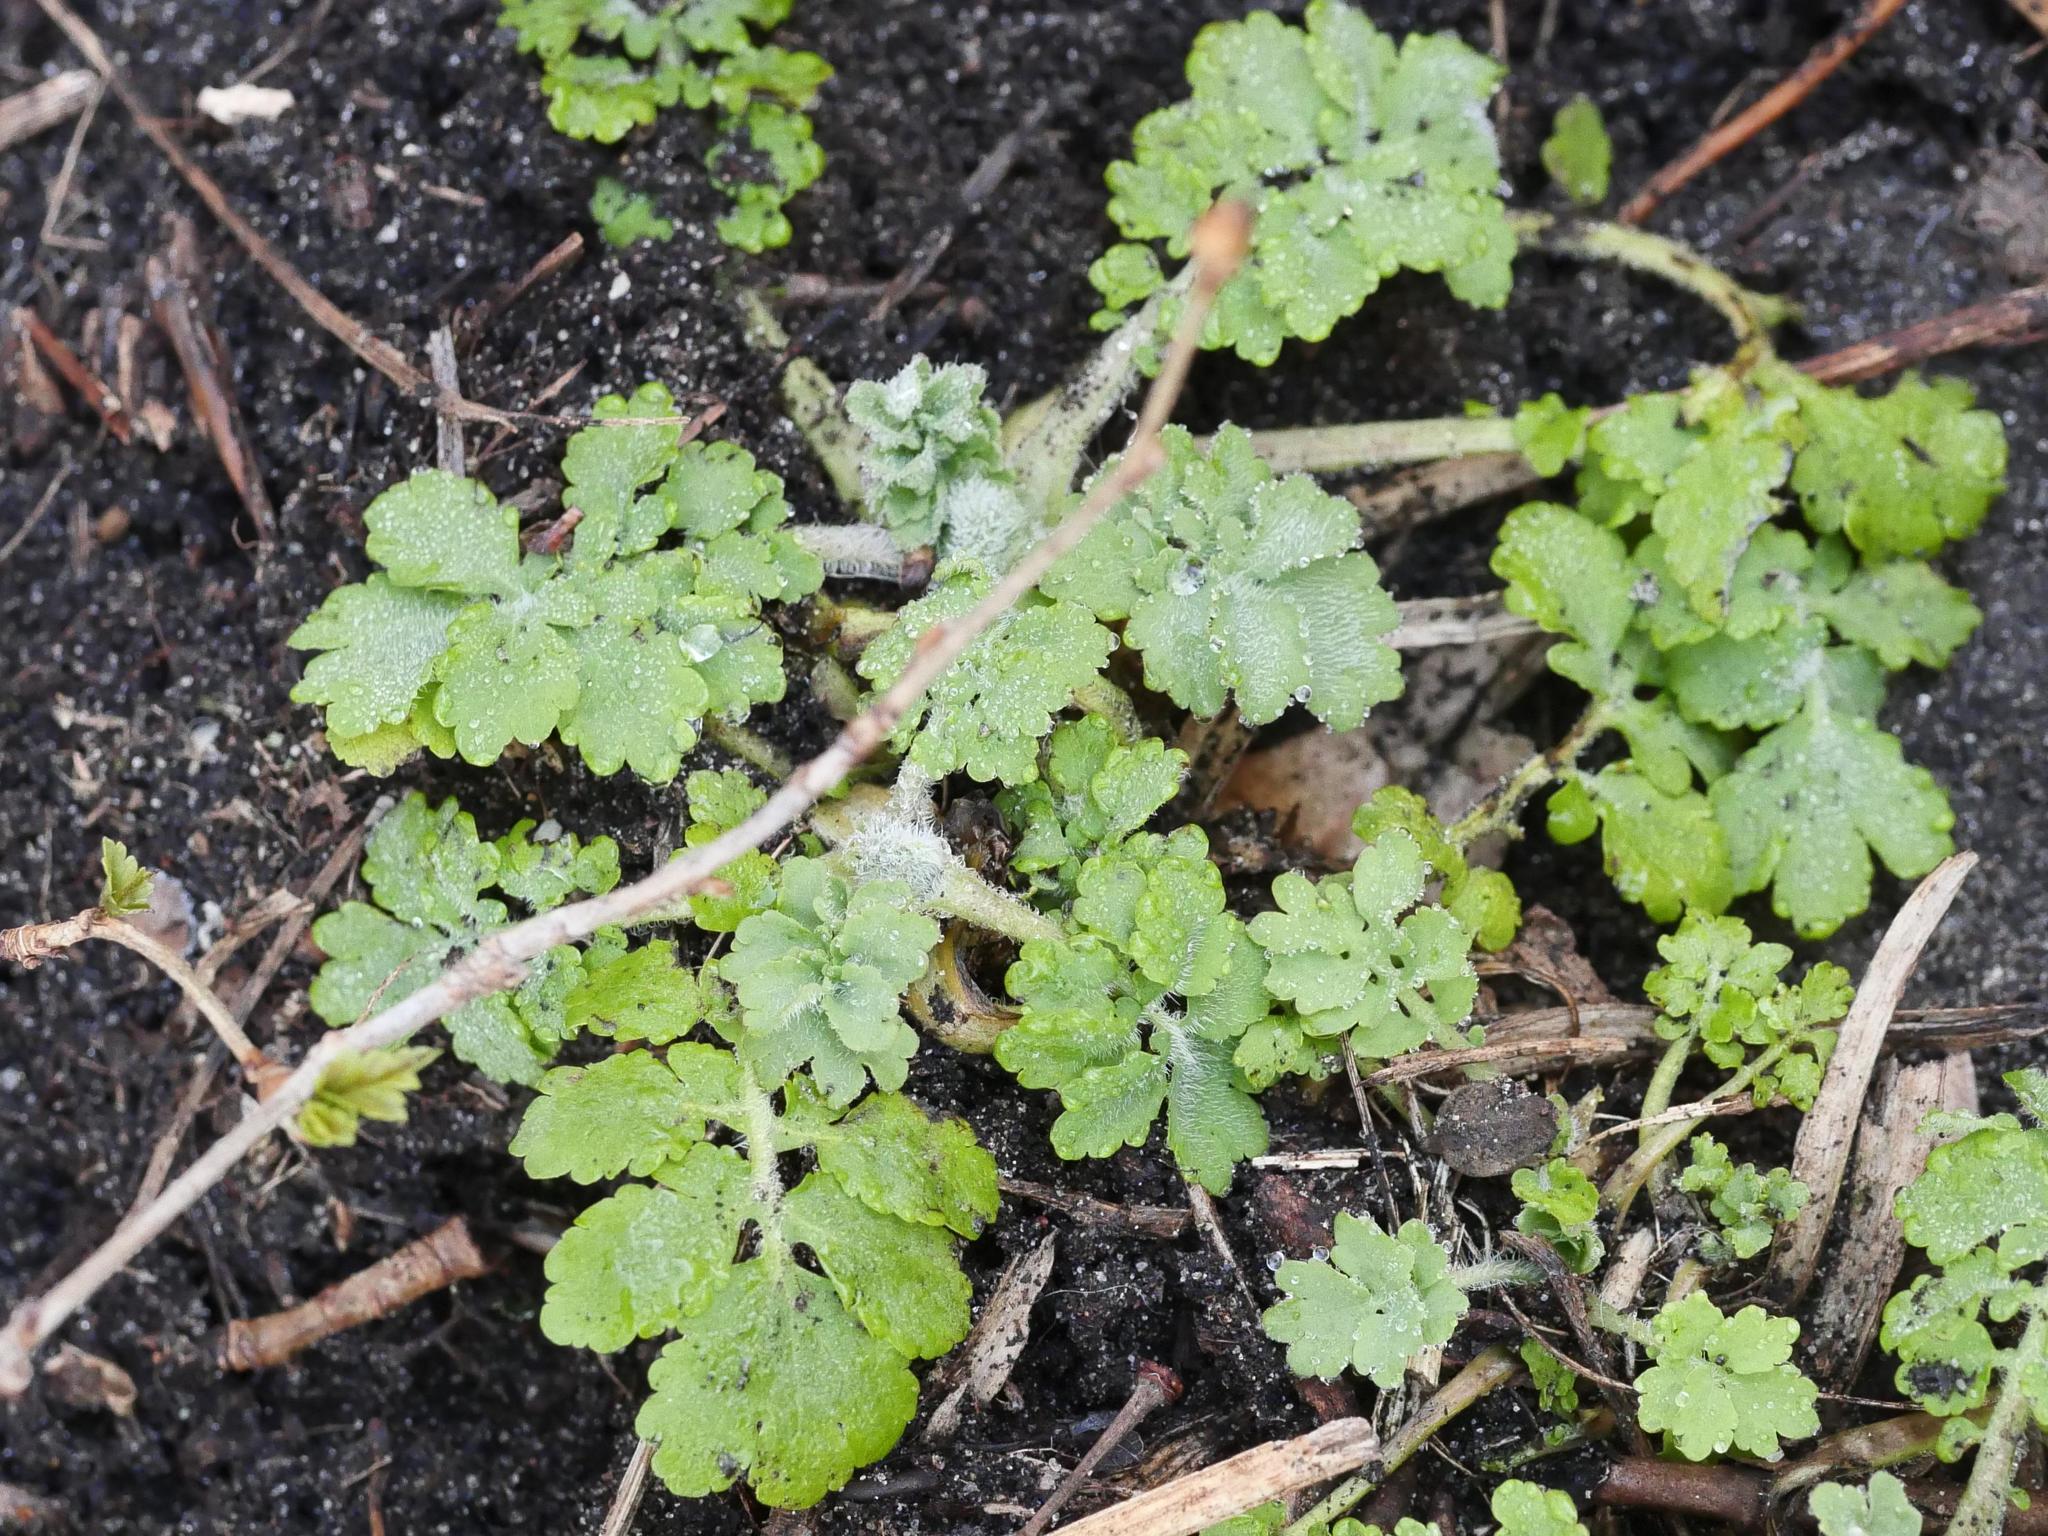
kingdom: Plantae
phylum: Tracheophyta
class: Magnoliopsida
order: Ranunculales
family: Papaveraceae
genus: Chelidonium
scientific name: Chelidonium majus
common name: Greater celandine
